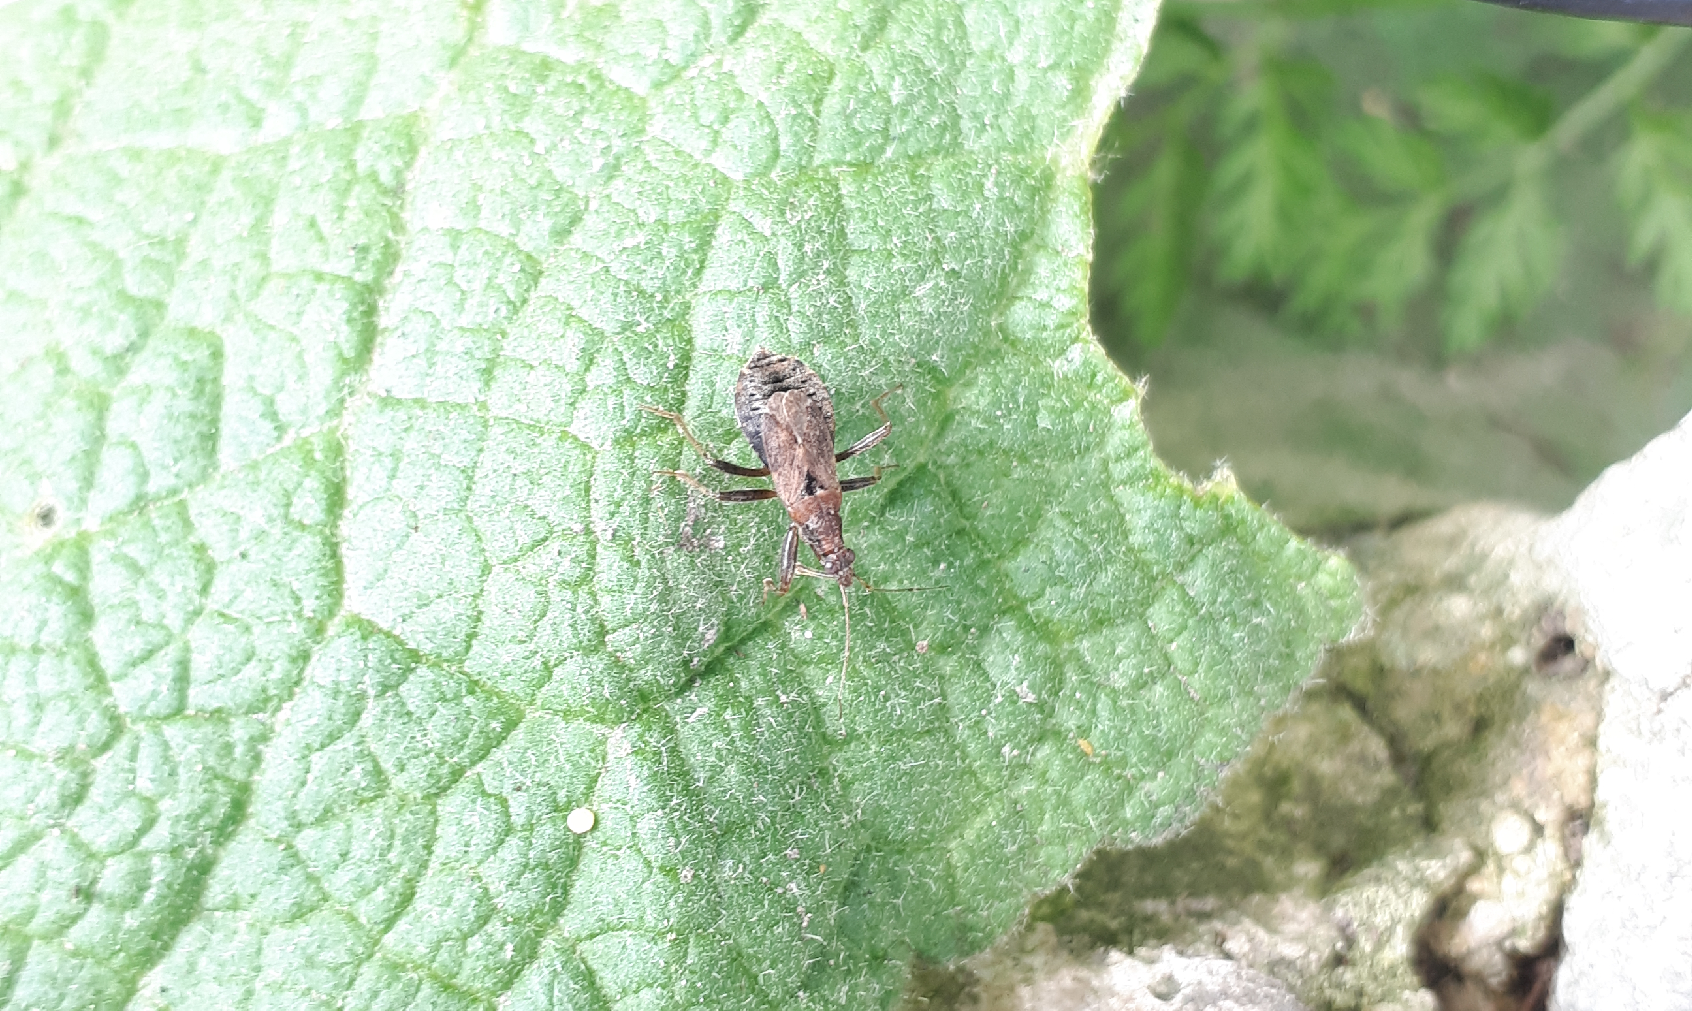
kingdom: Animalia
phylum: Arthropoda
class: Insecta
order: Hemiptera
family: Nabidae
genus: Himacerus
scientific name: Himacerus mirmicoides
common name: Ant damsel bug
